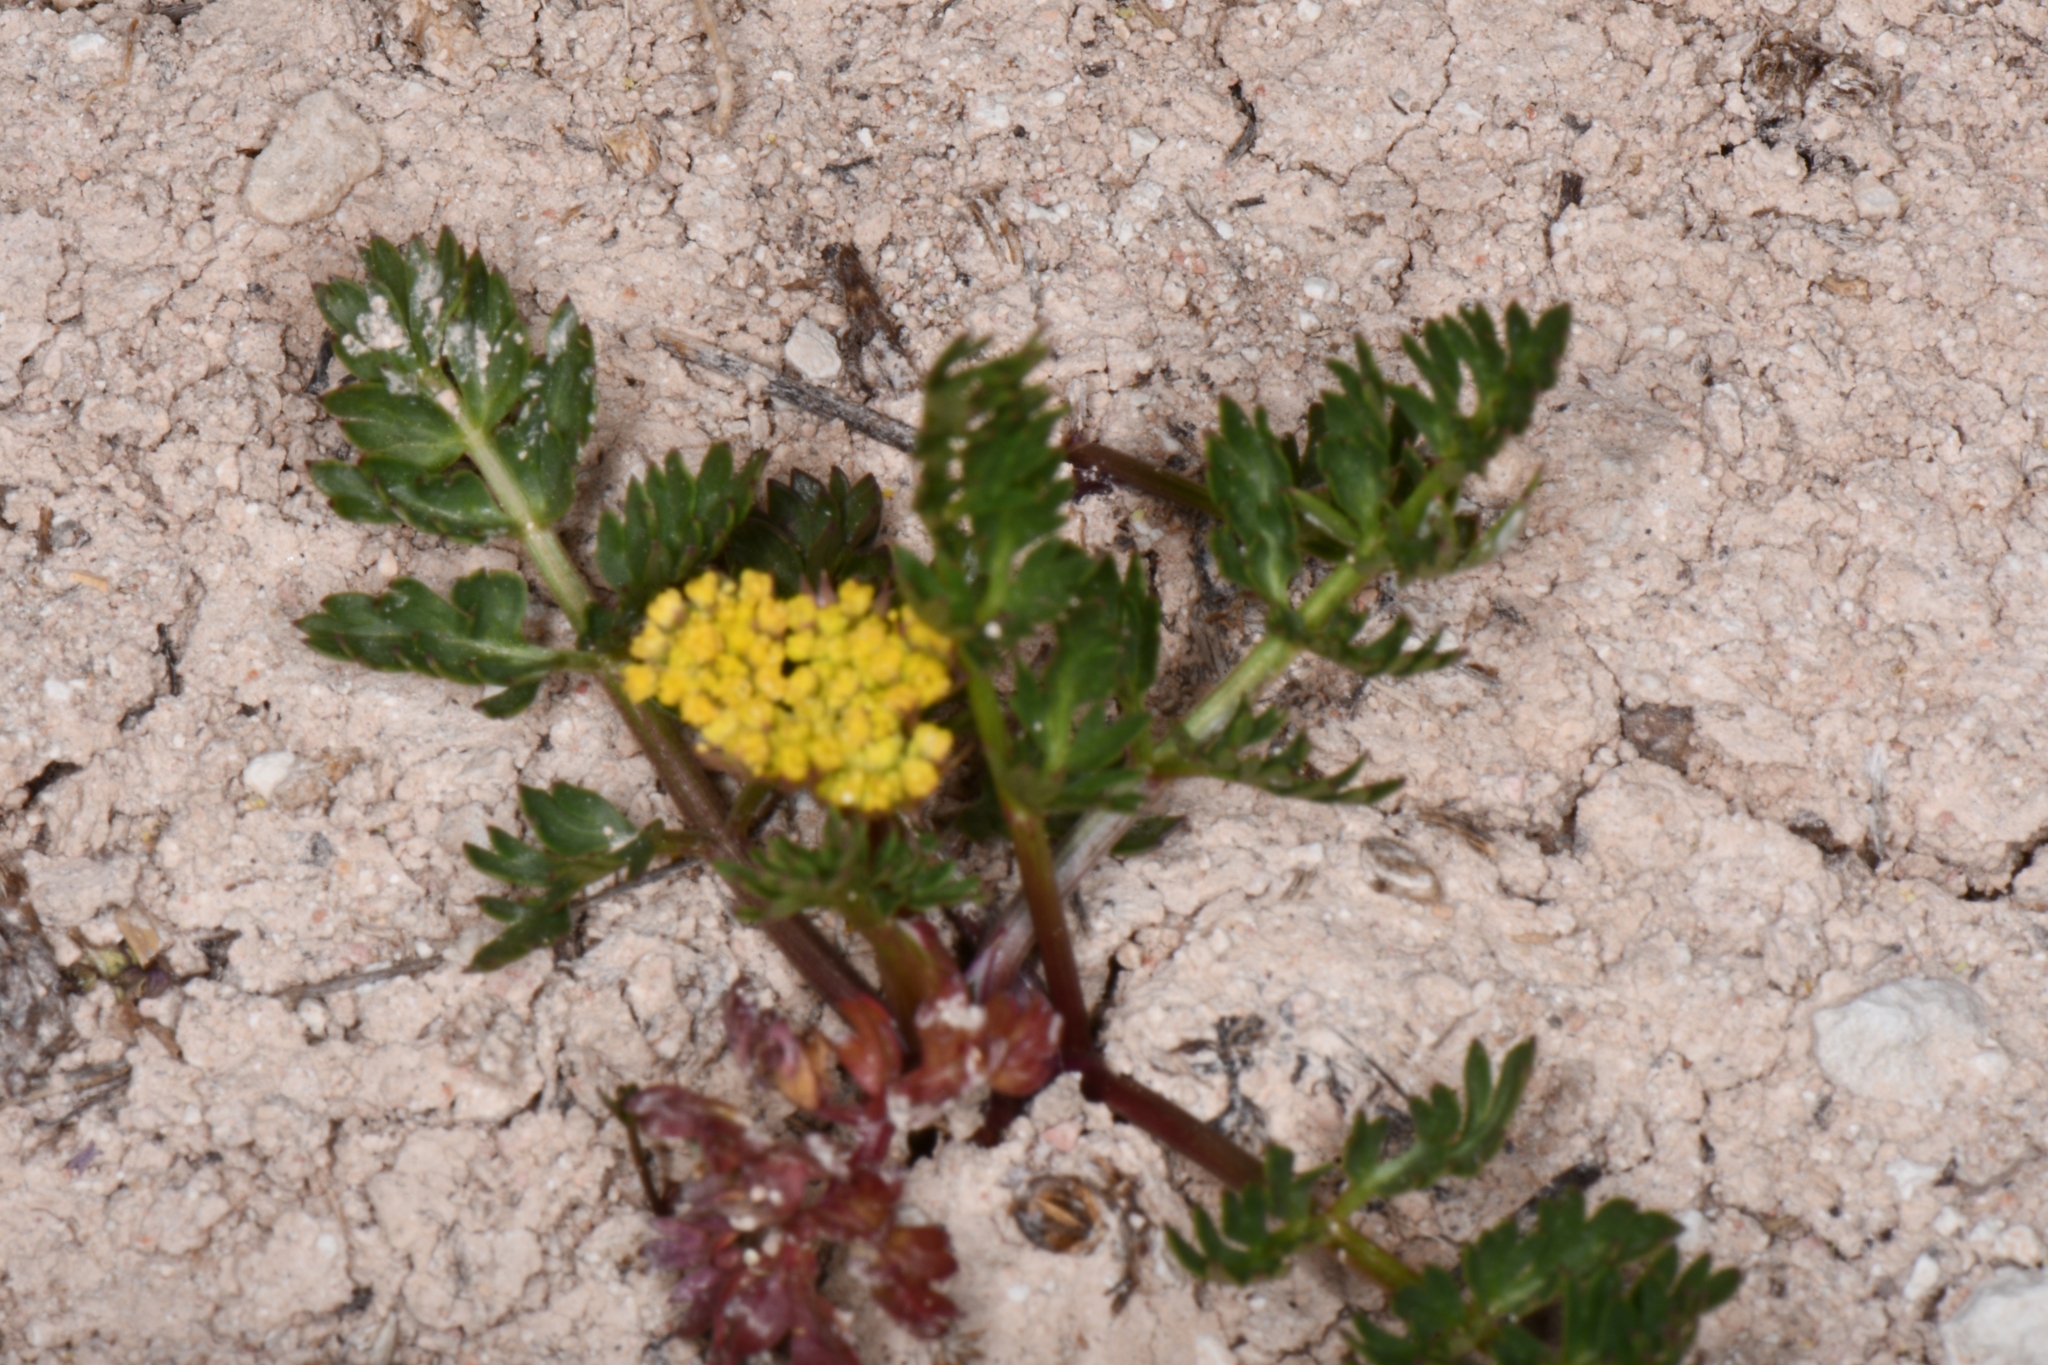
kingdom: Plantae
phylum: Tracheophyta
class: Magnoliopsida
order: Apiales
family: Apiaceae
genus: Cymopterus
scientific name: Cymopterus lemmonii
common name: Lemmon's spring-parsley
